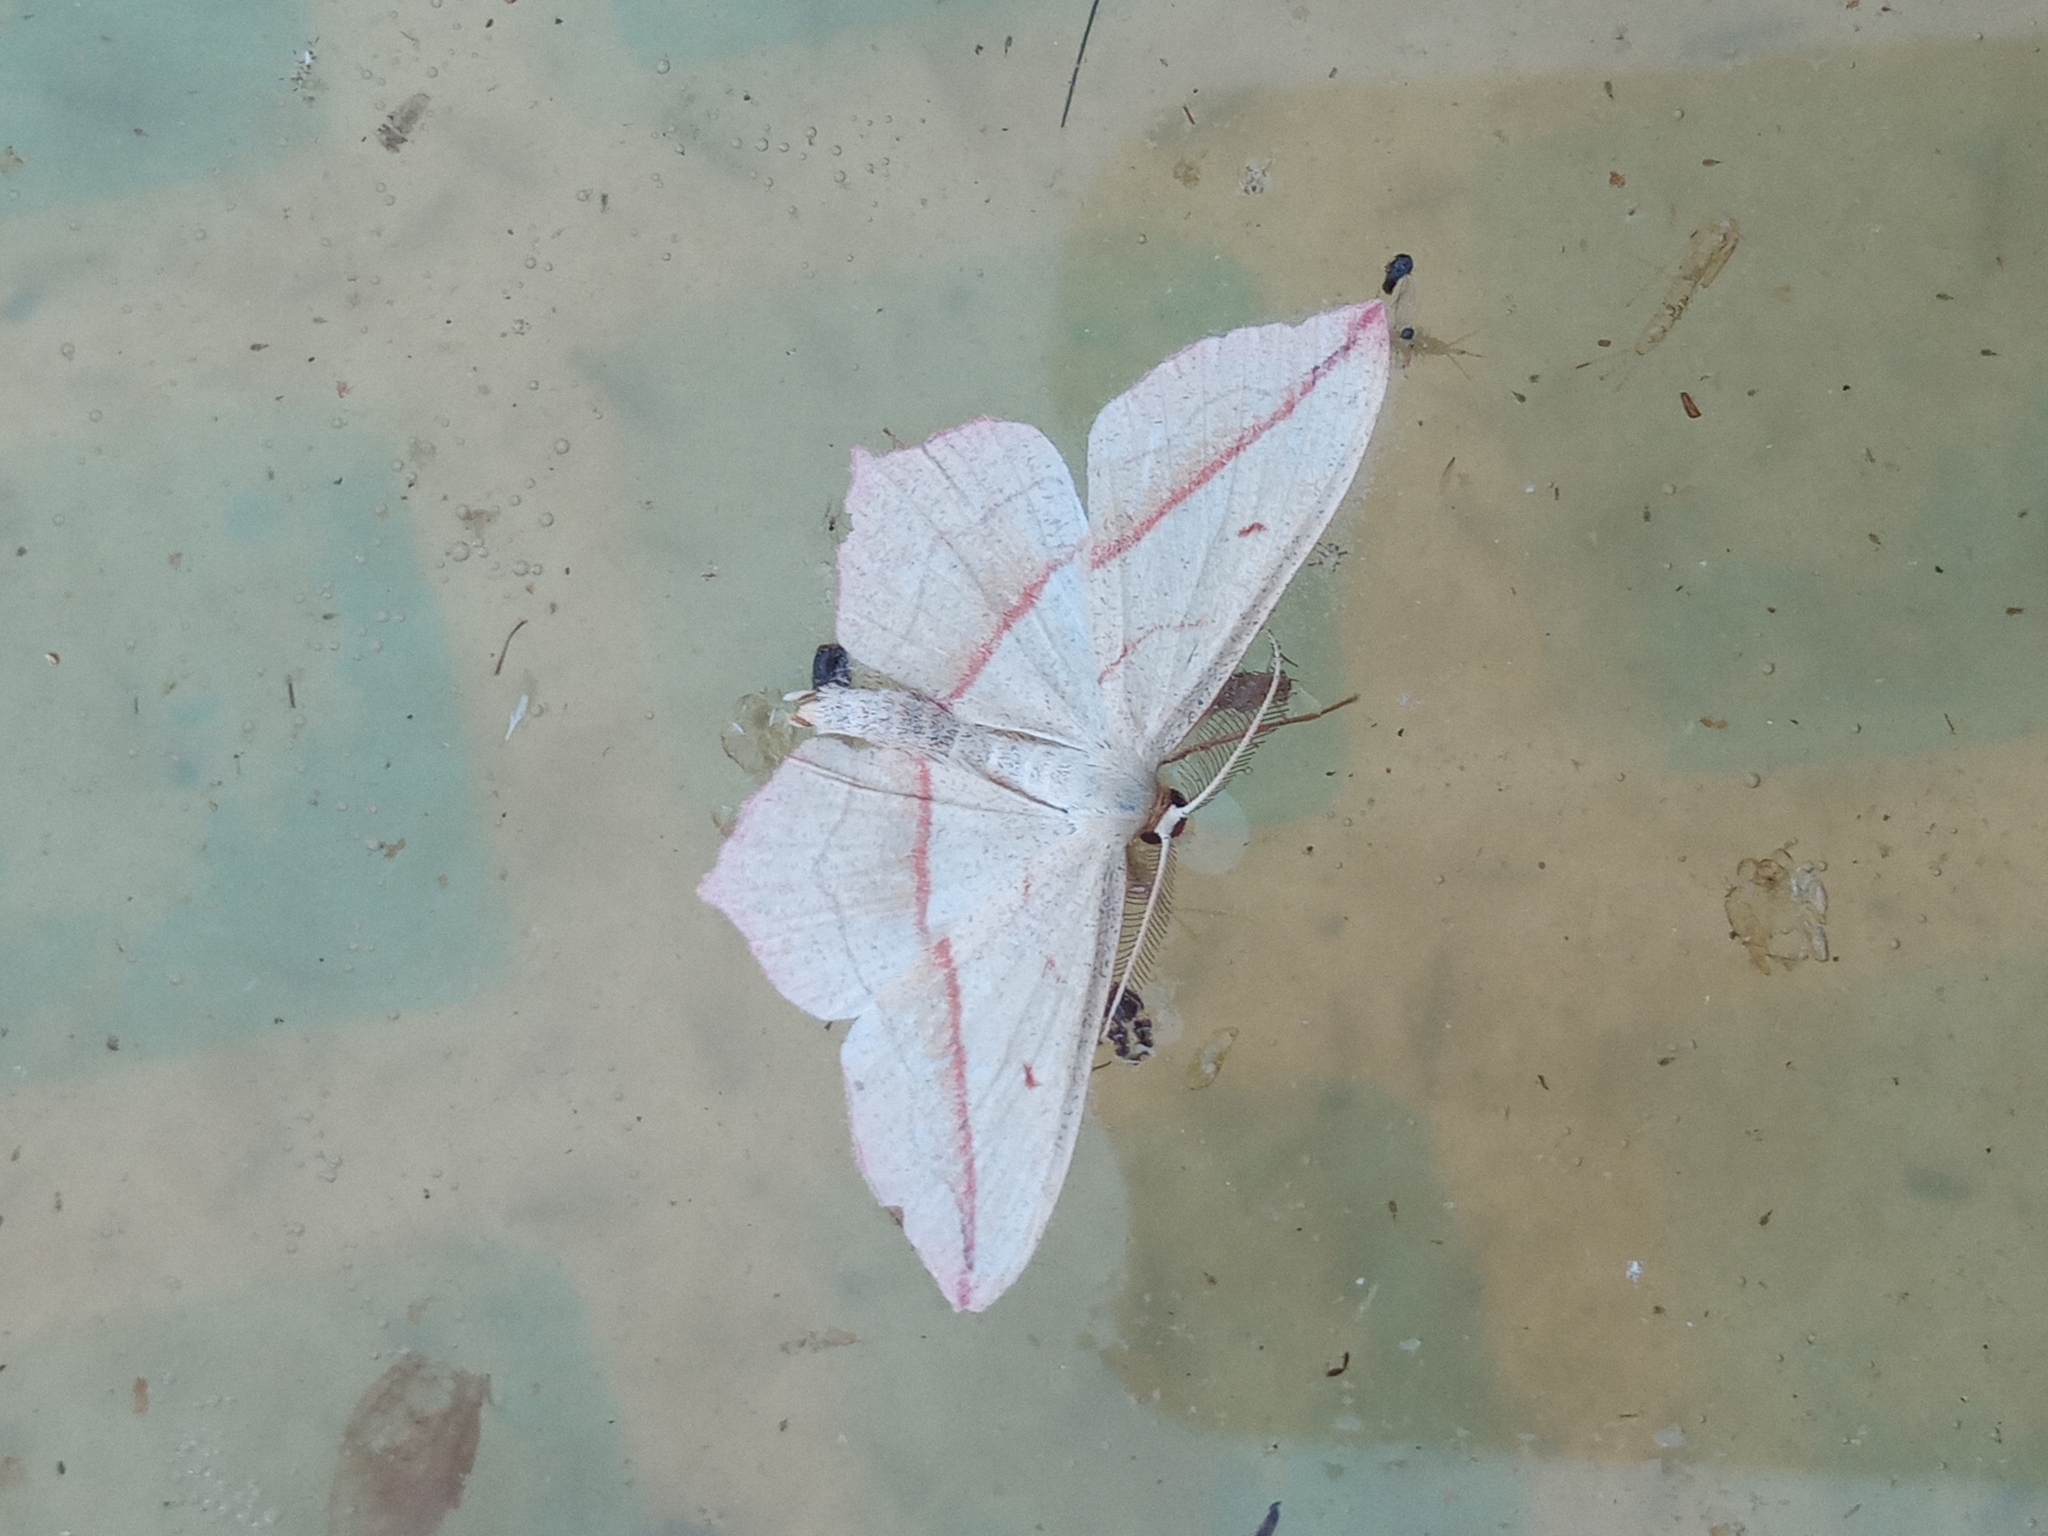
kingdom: Animalia
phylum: Arthropoda
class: Insecta
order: Lepidoptera
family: Geometridae
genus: Timandra
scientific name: Timandra comae
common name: Blood-vein
